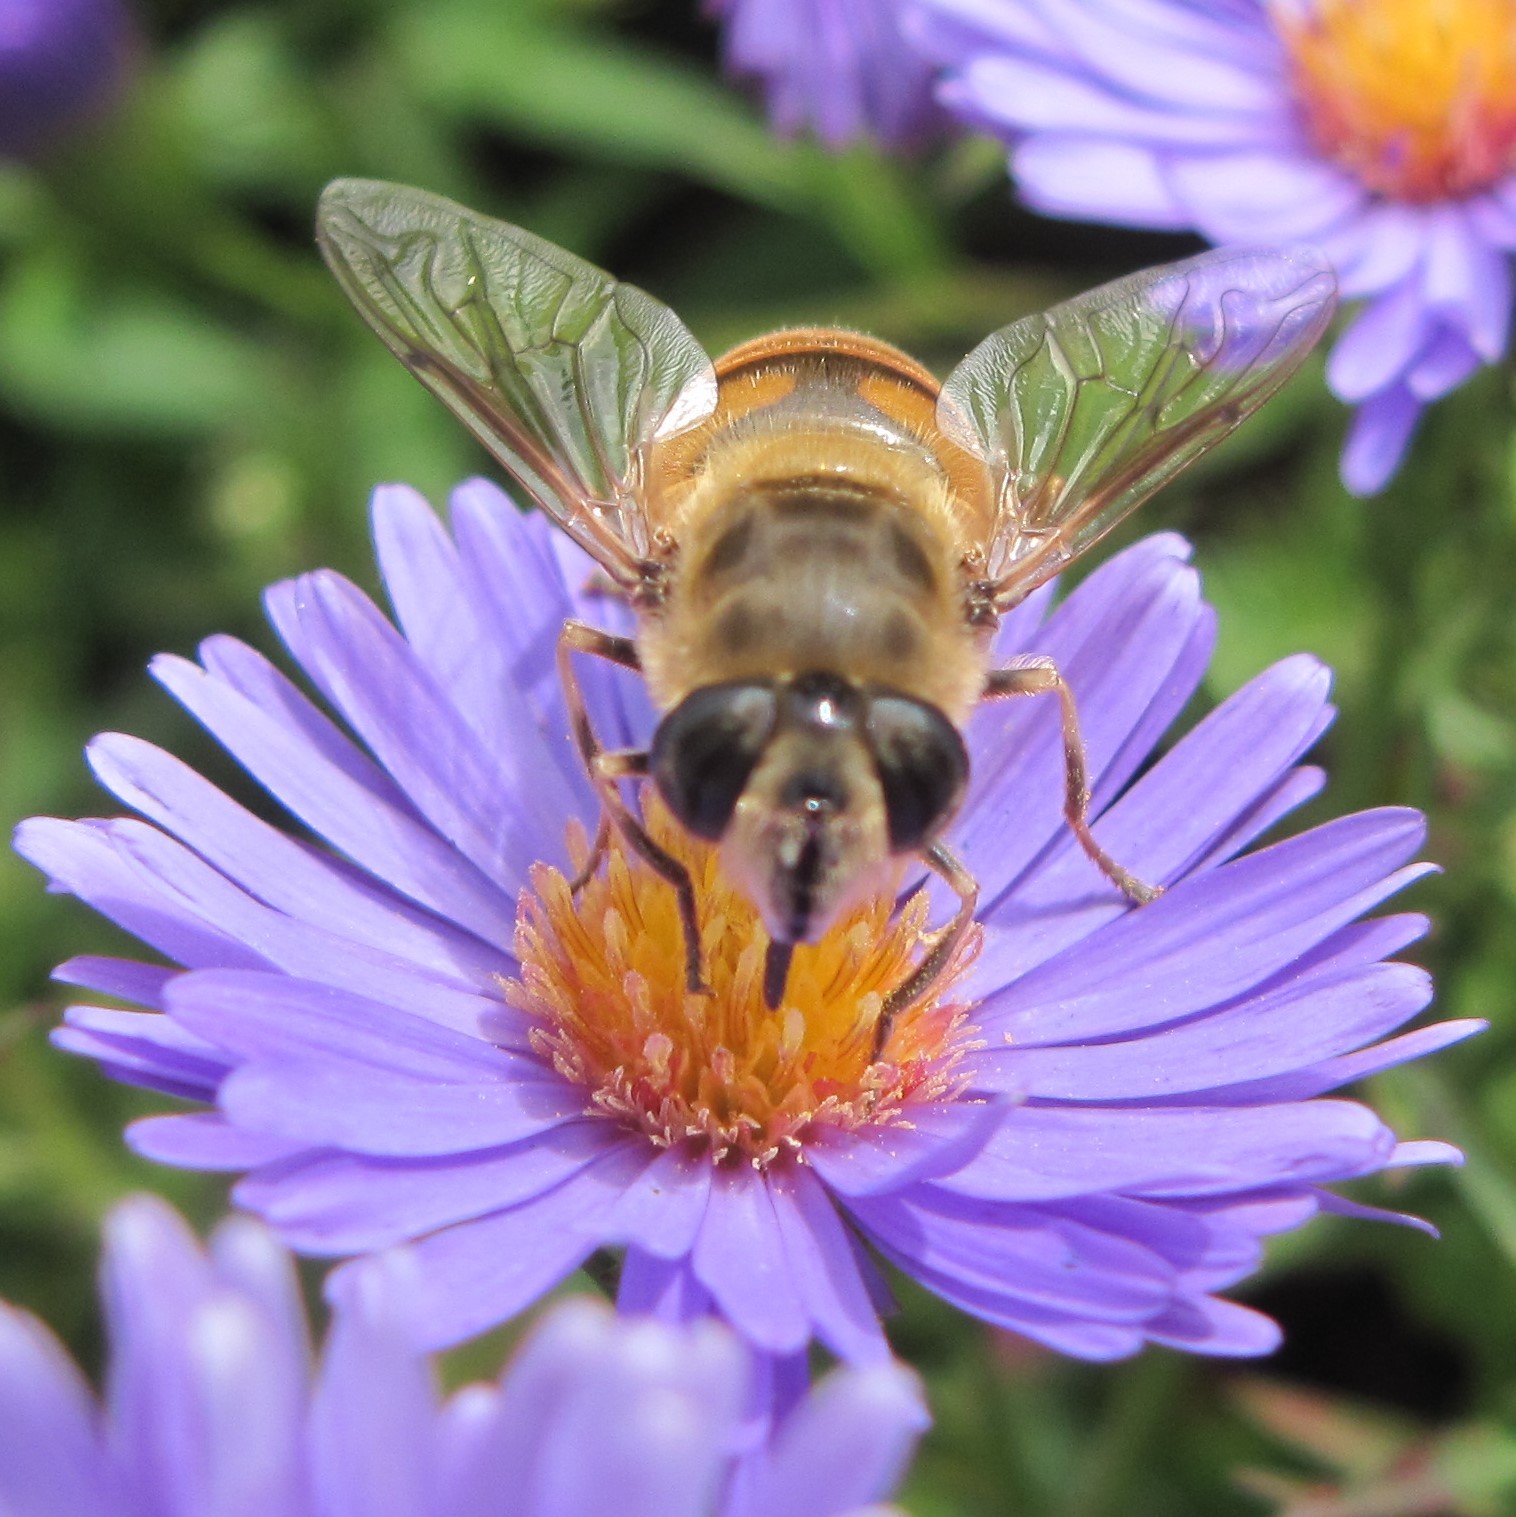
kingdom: Animalia
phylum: Arthropoda
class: Insecta
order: Diptera
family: Syrphidae
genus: Eristalis
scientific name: Eristalis tenax
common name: Drone fly
